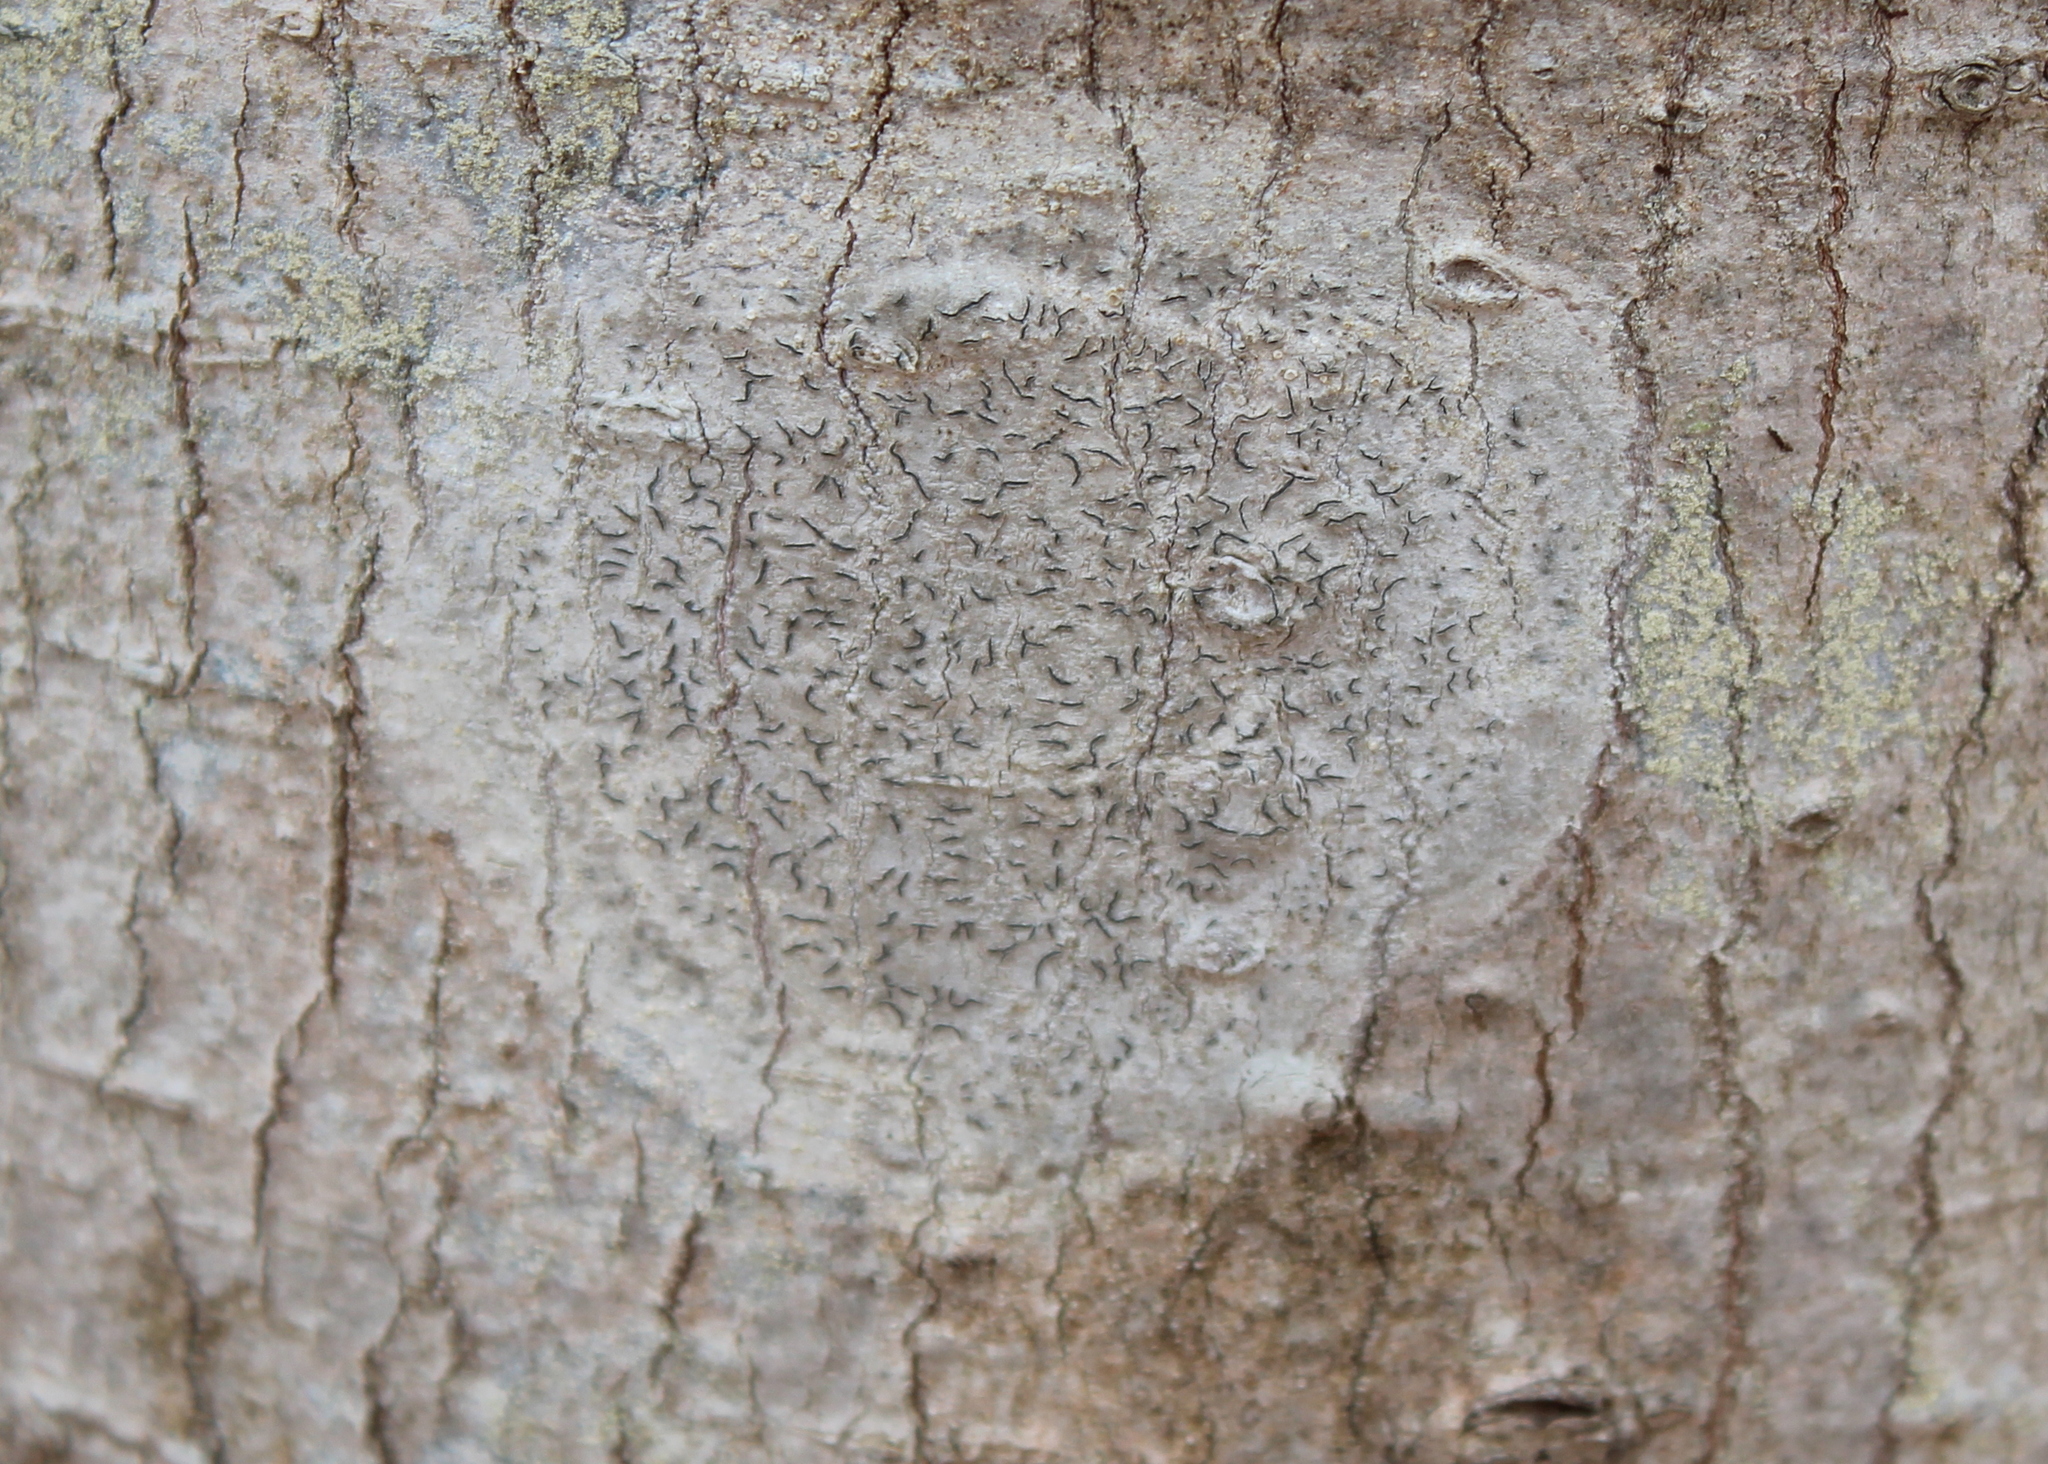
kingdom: Fungi
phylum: Ascomycota
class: Lecanoromycetes
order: Ostropales
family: Graphidaceae
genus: Graphis
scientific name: Graphis scripta
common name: Script lichen
